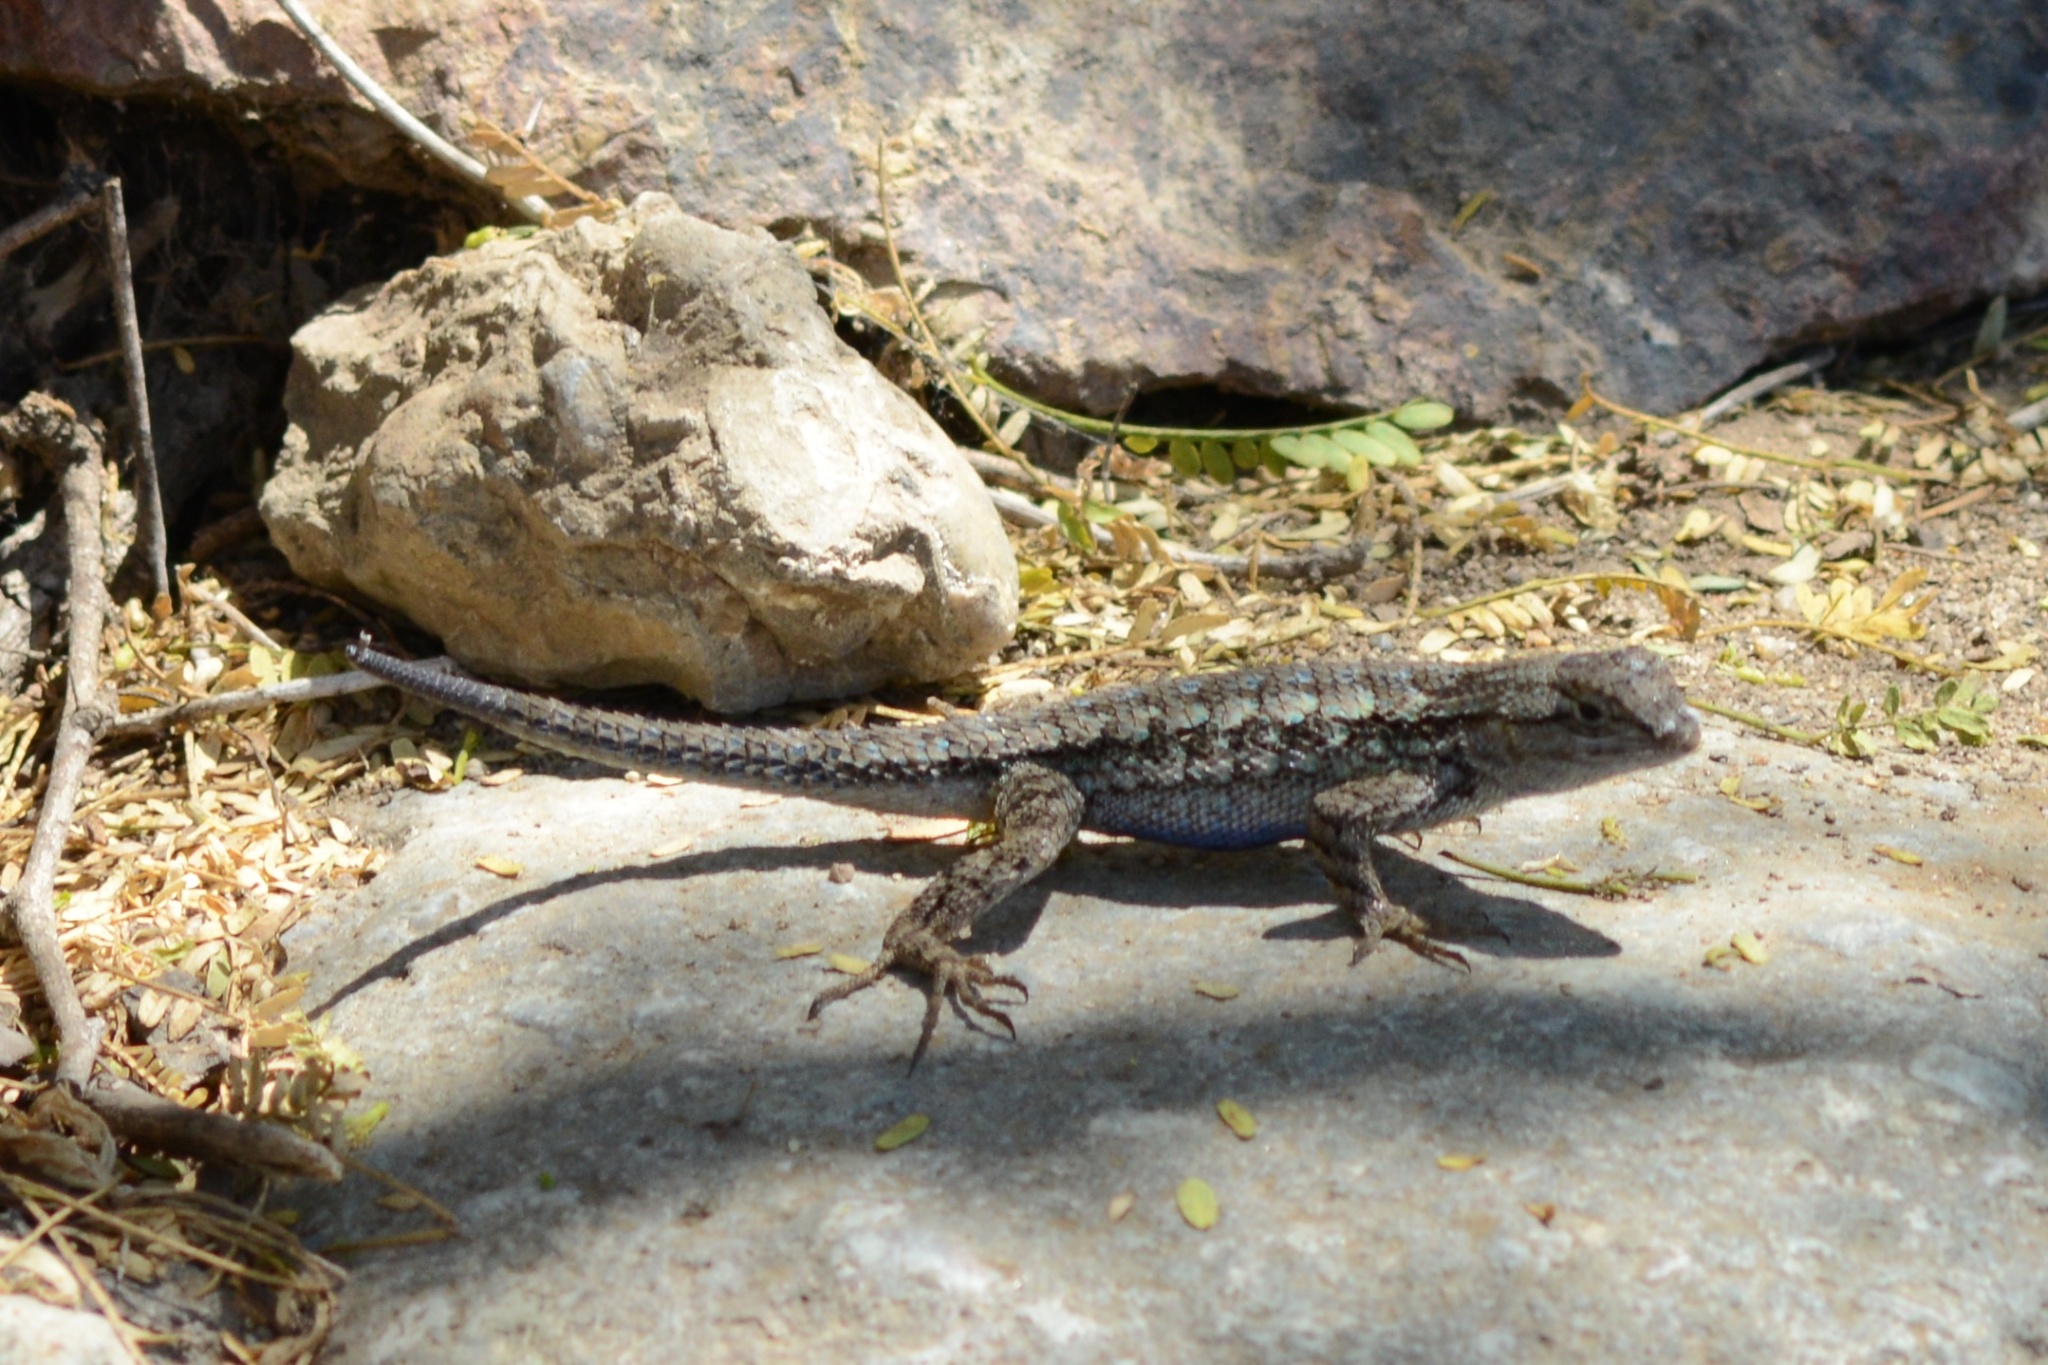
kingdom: Animalia
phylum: Chordata
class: Squamata
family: Phrynosomatidae
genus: Sceloporus
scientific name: Sceloporus occidentalis
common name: Western fence lizard
